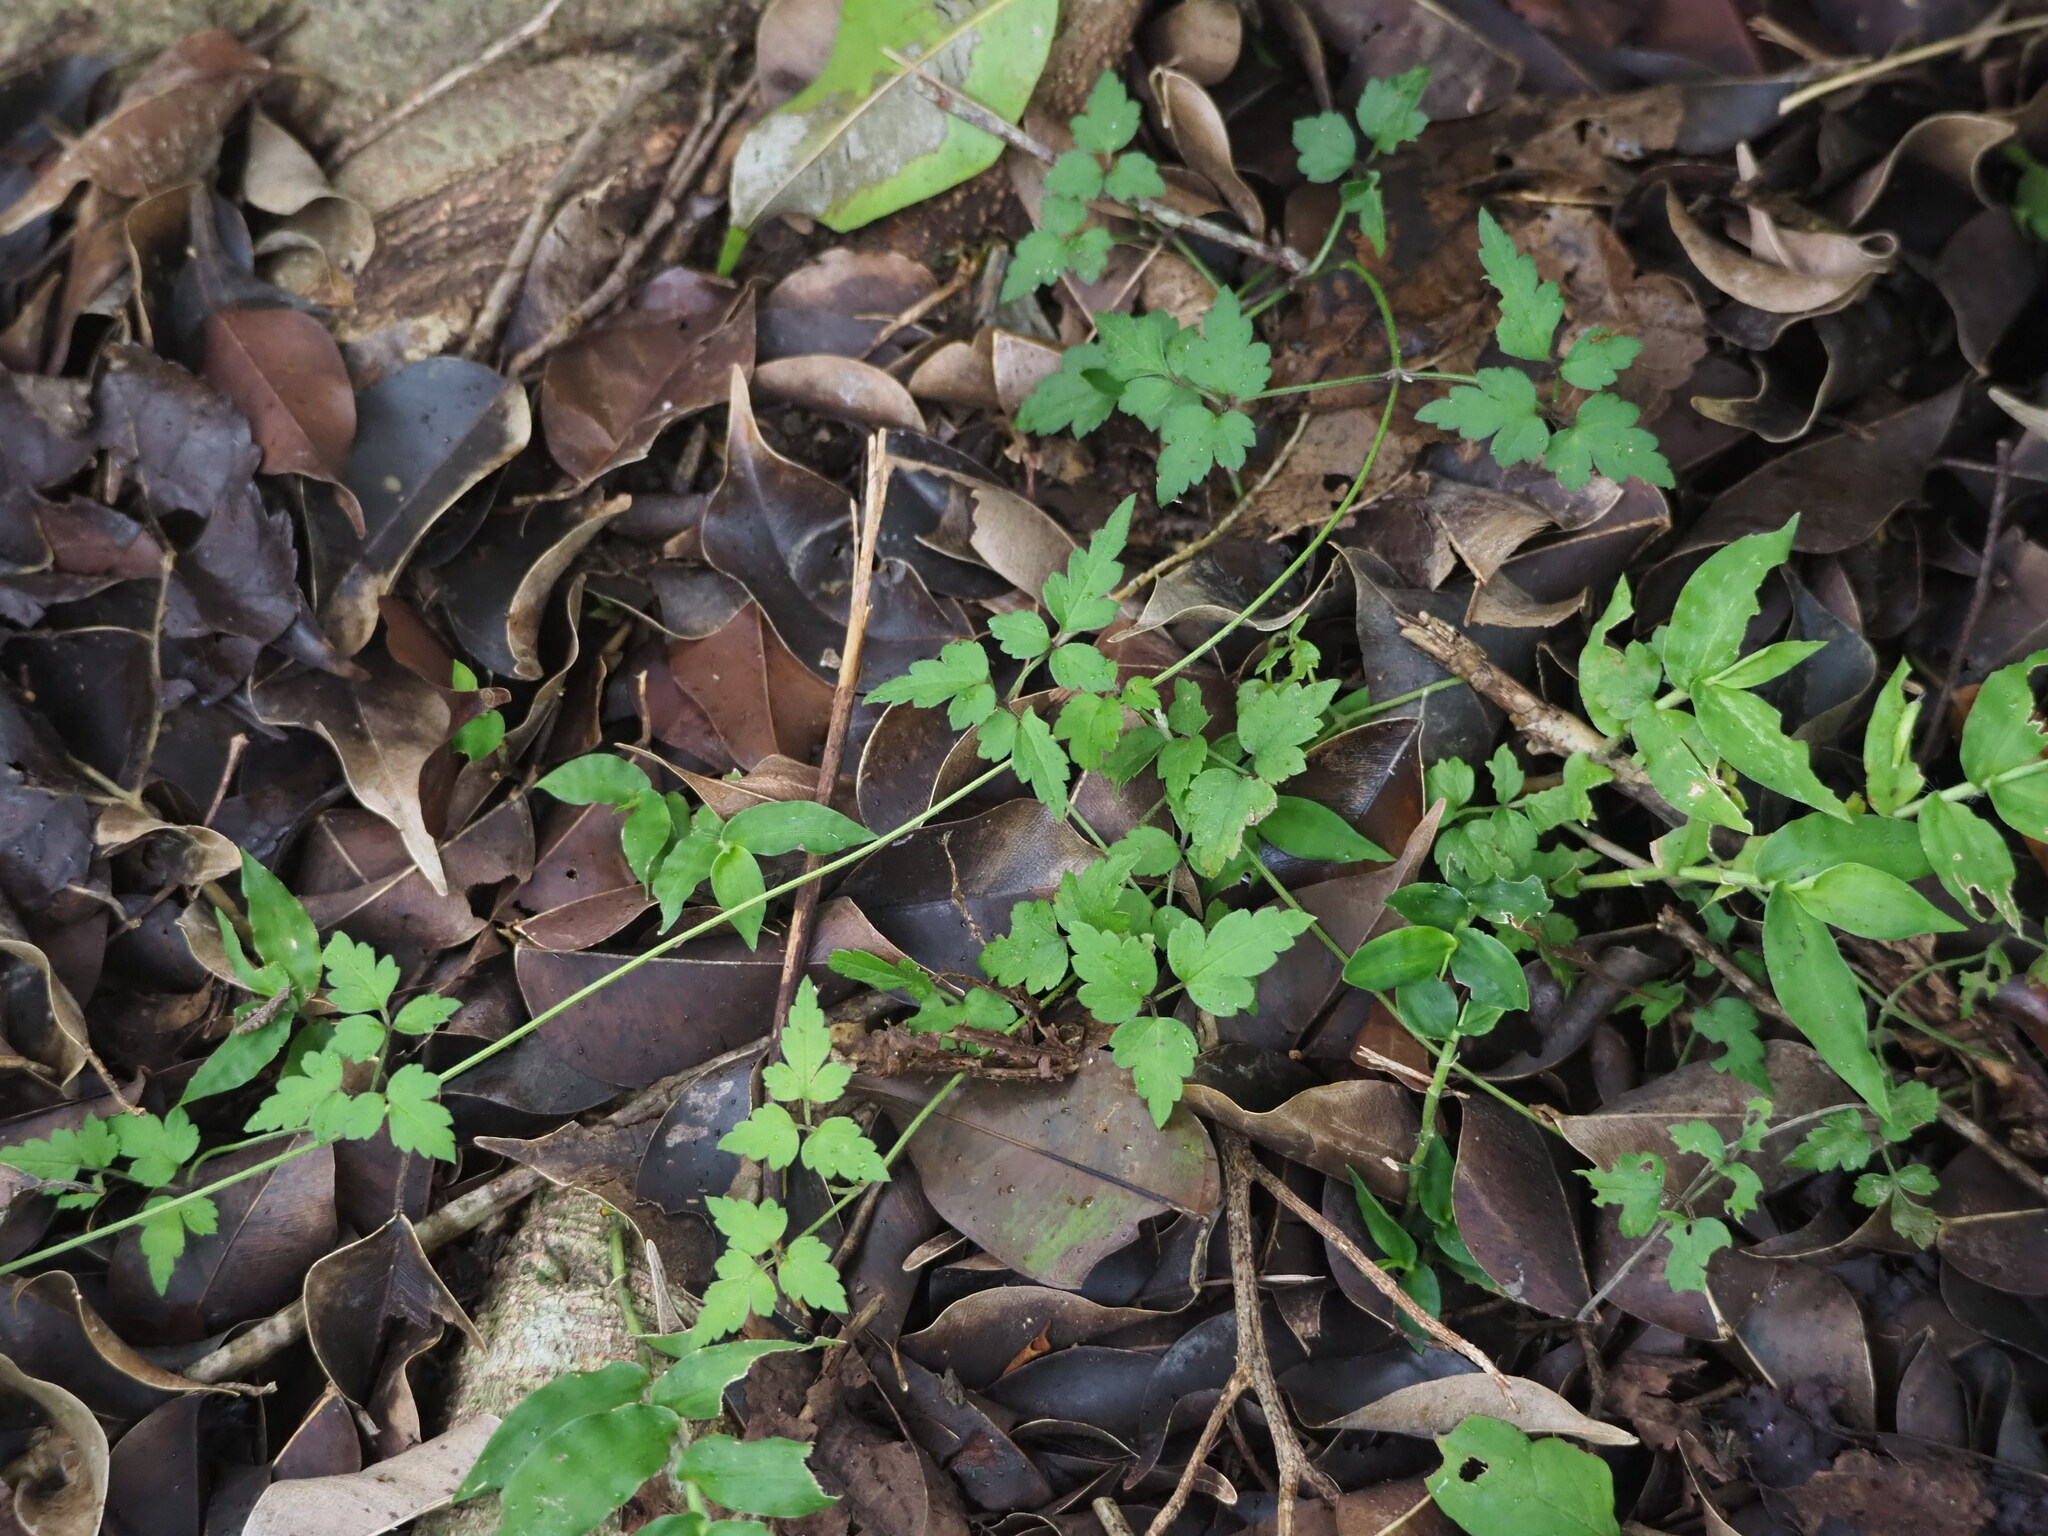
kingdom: Plantae
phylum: Tracheophyta
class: Magnoliopsida
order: Ranunculales
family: Ranunculaceae
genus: Clematis
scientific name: Clematis grata
